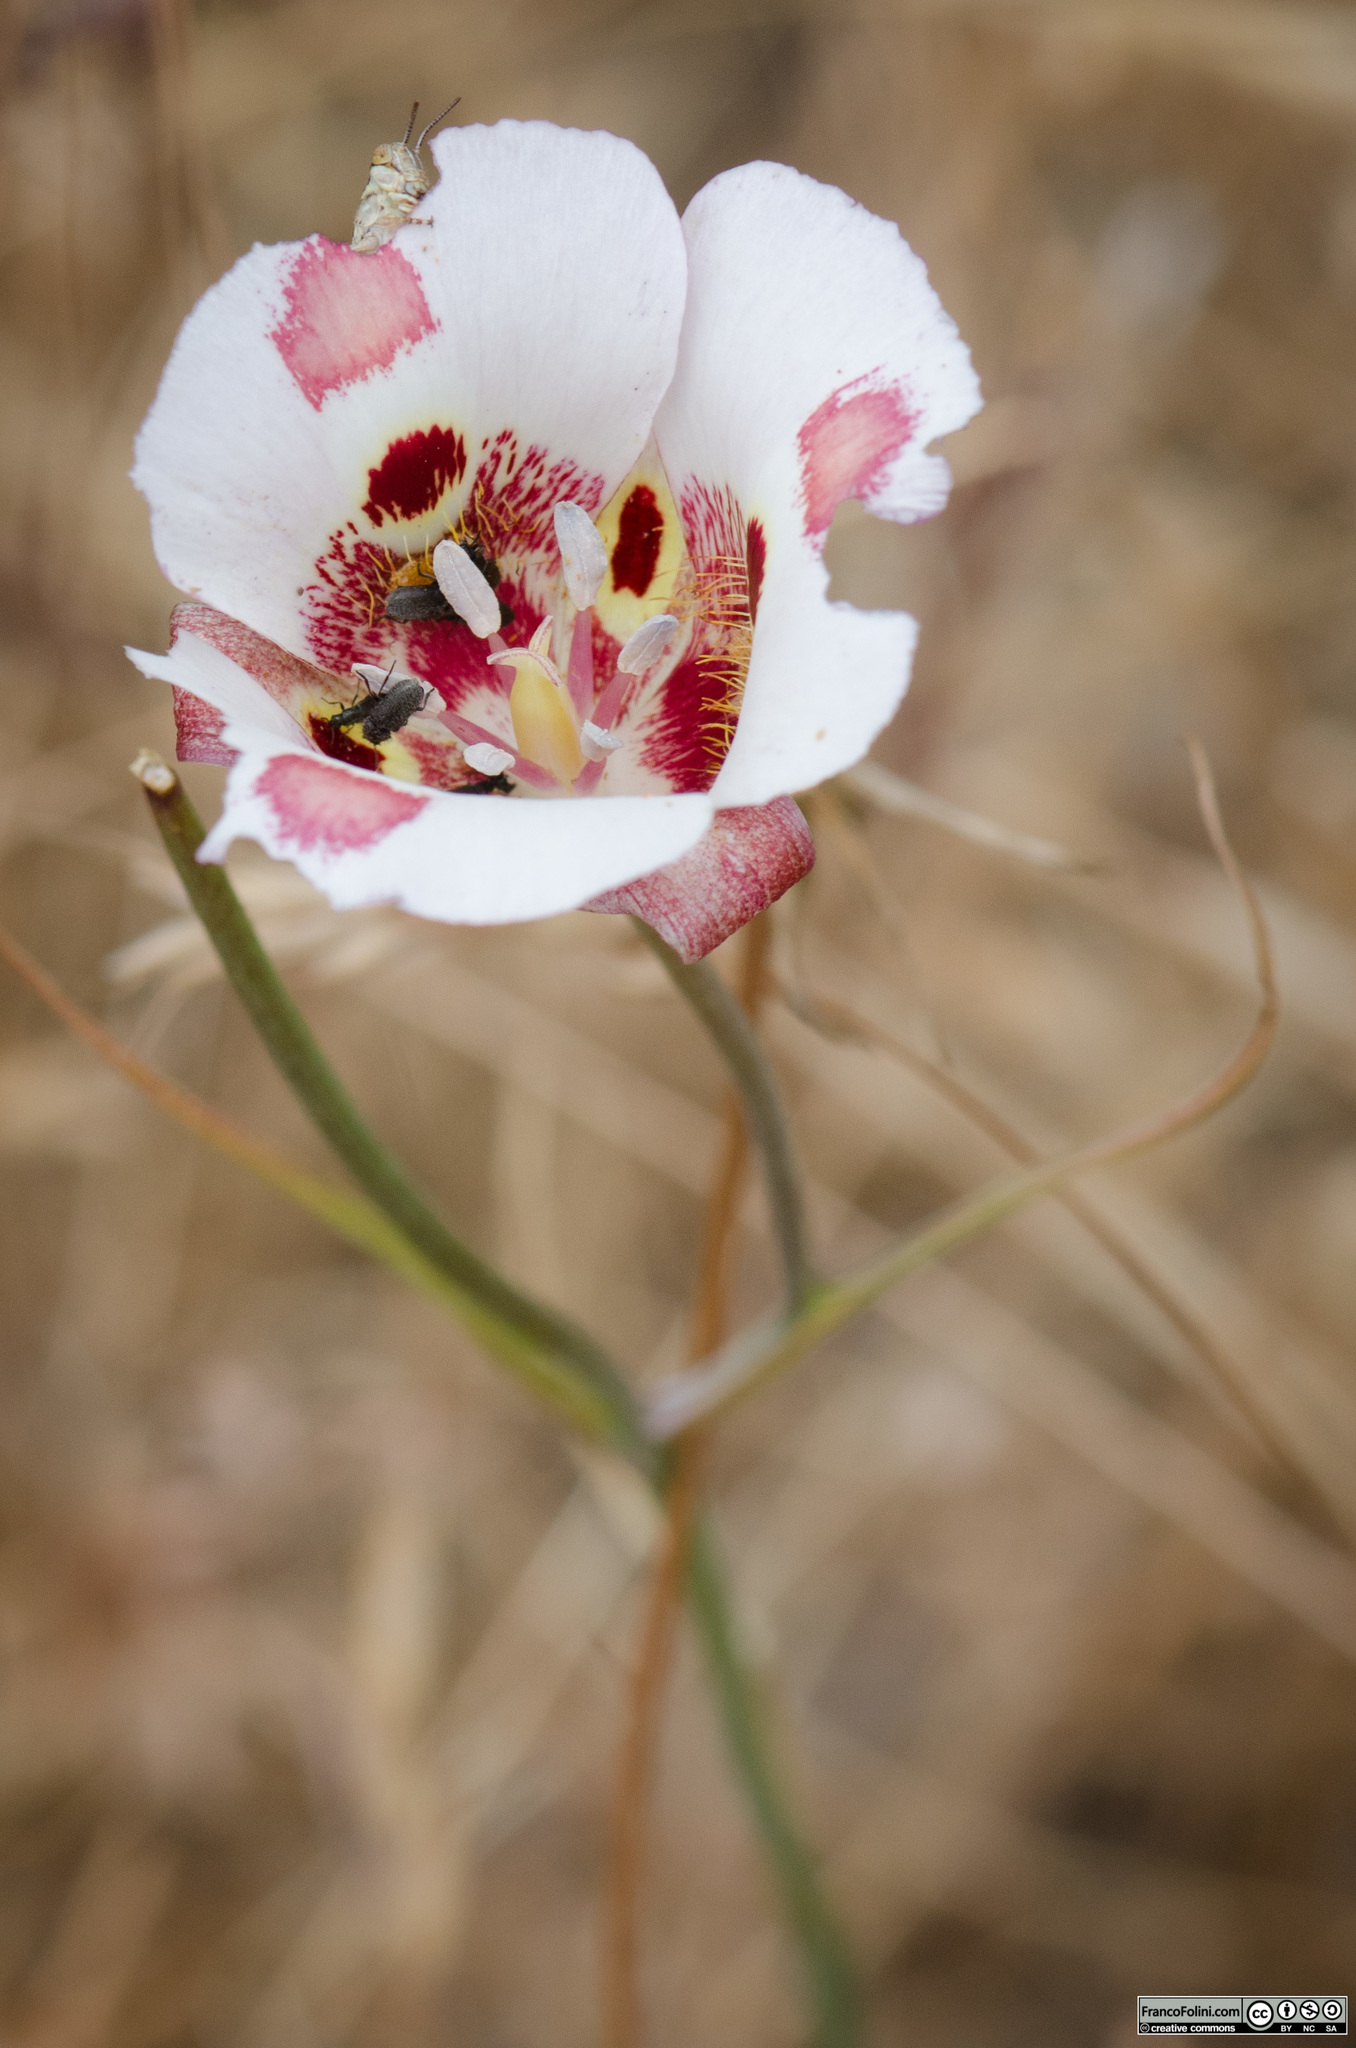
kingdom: Plantae
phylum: Tracheophyta
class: Liliopsida
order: Liliales
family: Liliaceae
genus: Calochortus
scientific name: Calochortus venustus
